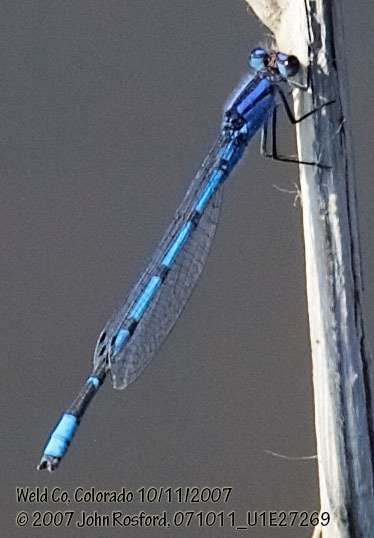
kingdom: Animalia
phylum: Arthropoda
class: Insecta
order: Odonata
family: Coenagrionidae
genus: Enallagma
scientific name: Enallagma civile
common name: Damselfly
